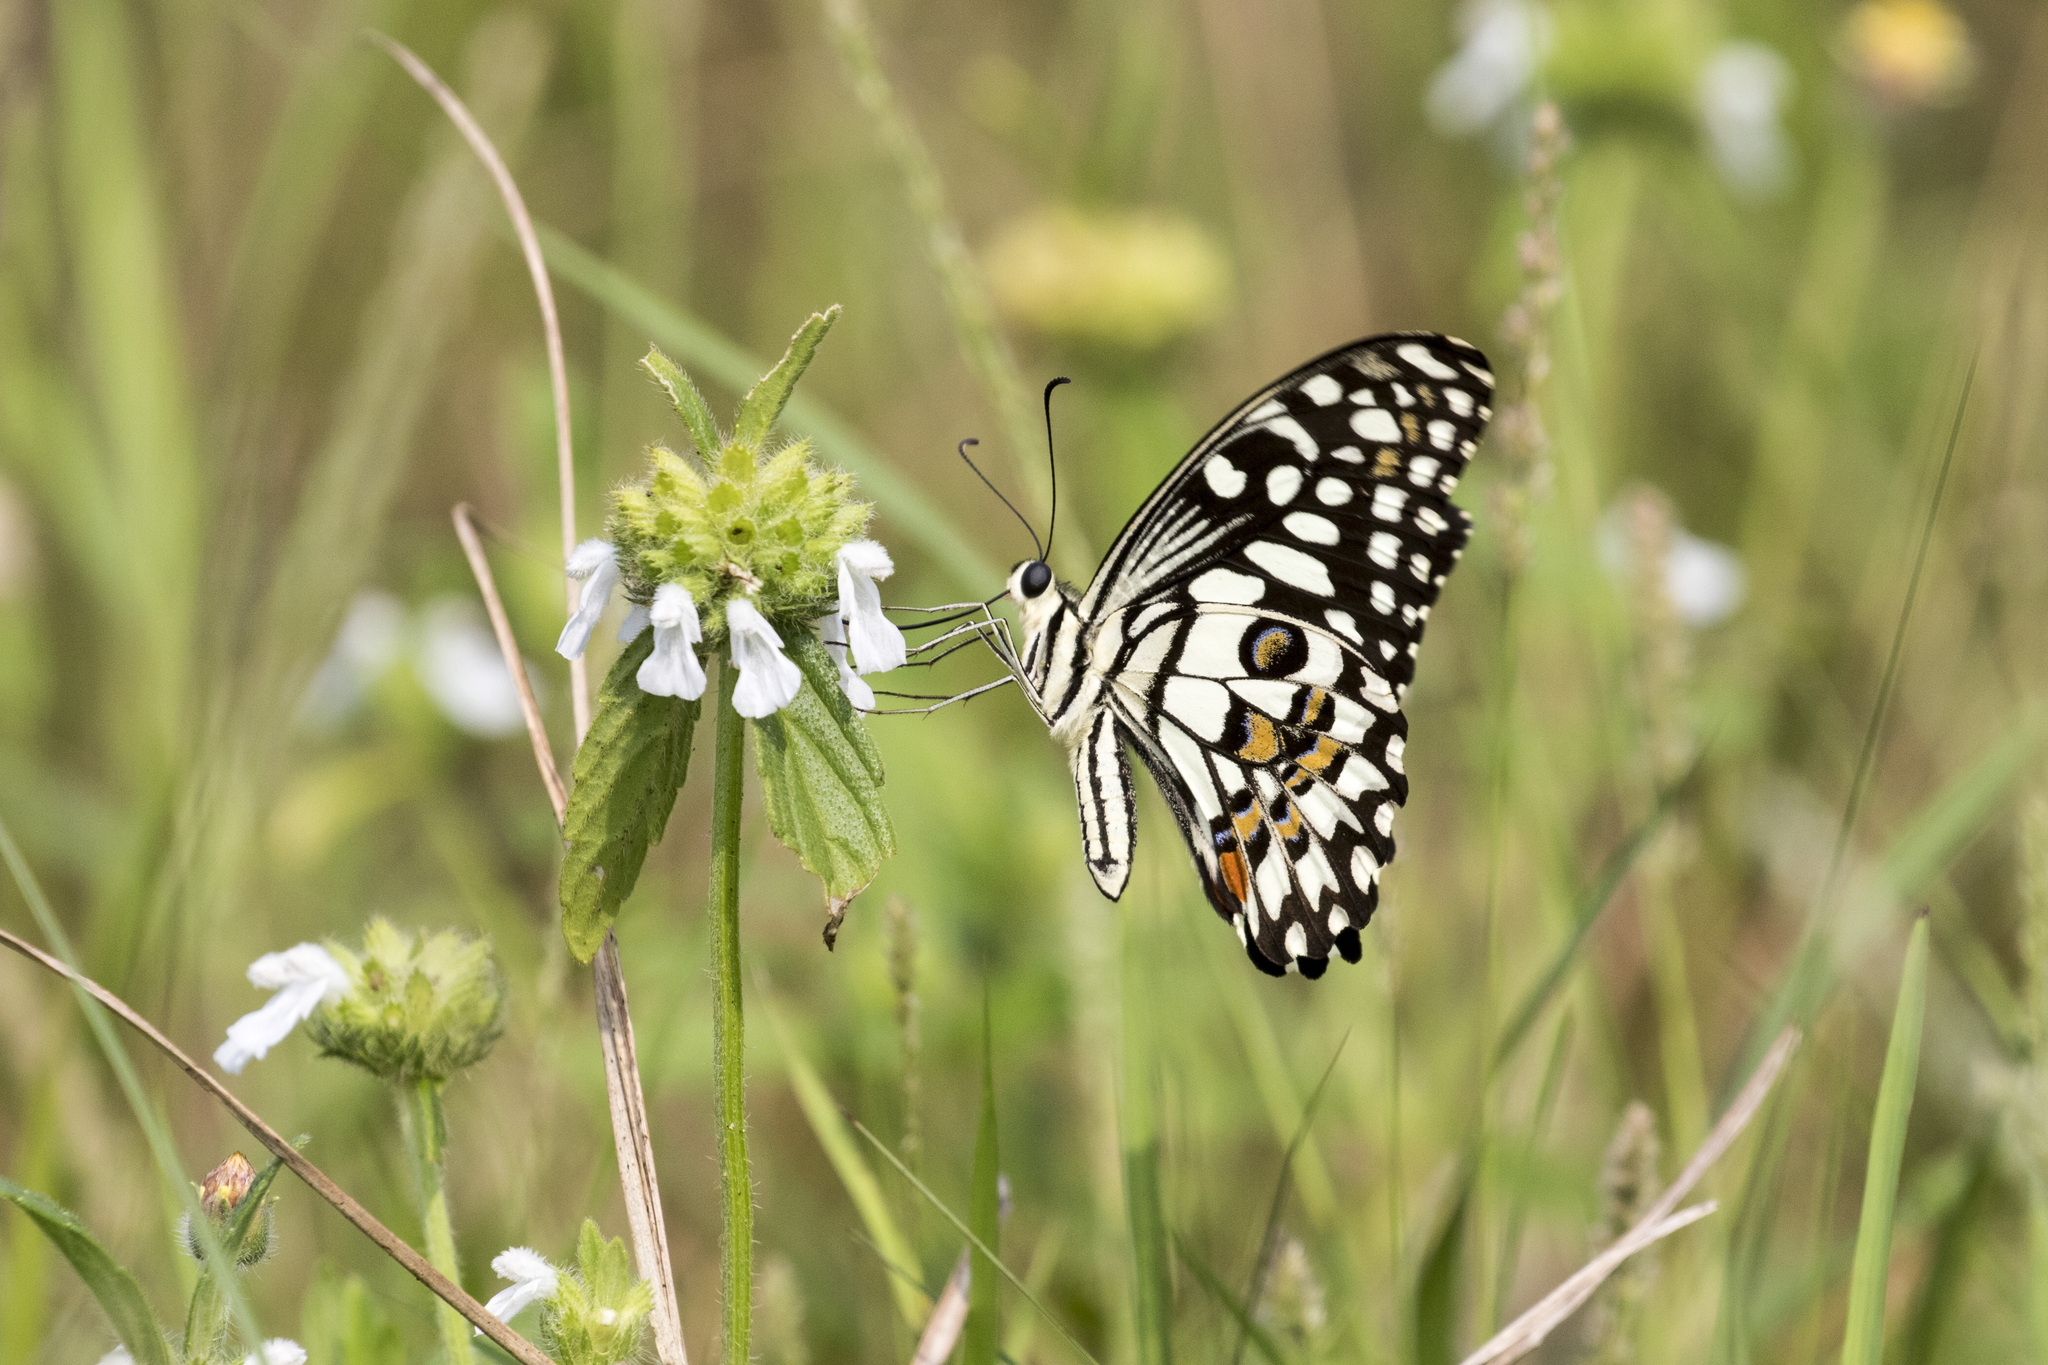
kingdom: Animalia
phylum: Arthropoda
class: Insecta
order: Lepidoptera
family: Papilionidae
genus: Papilio
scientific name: Papilio demoleus
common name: Lime butterfly
